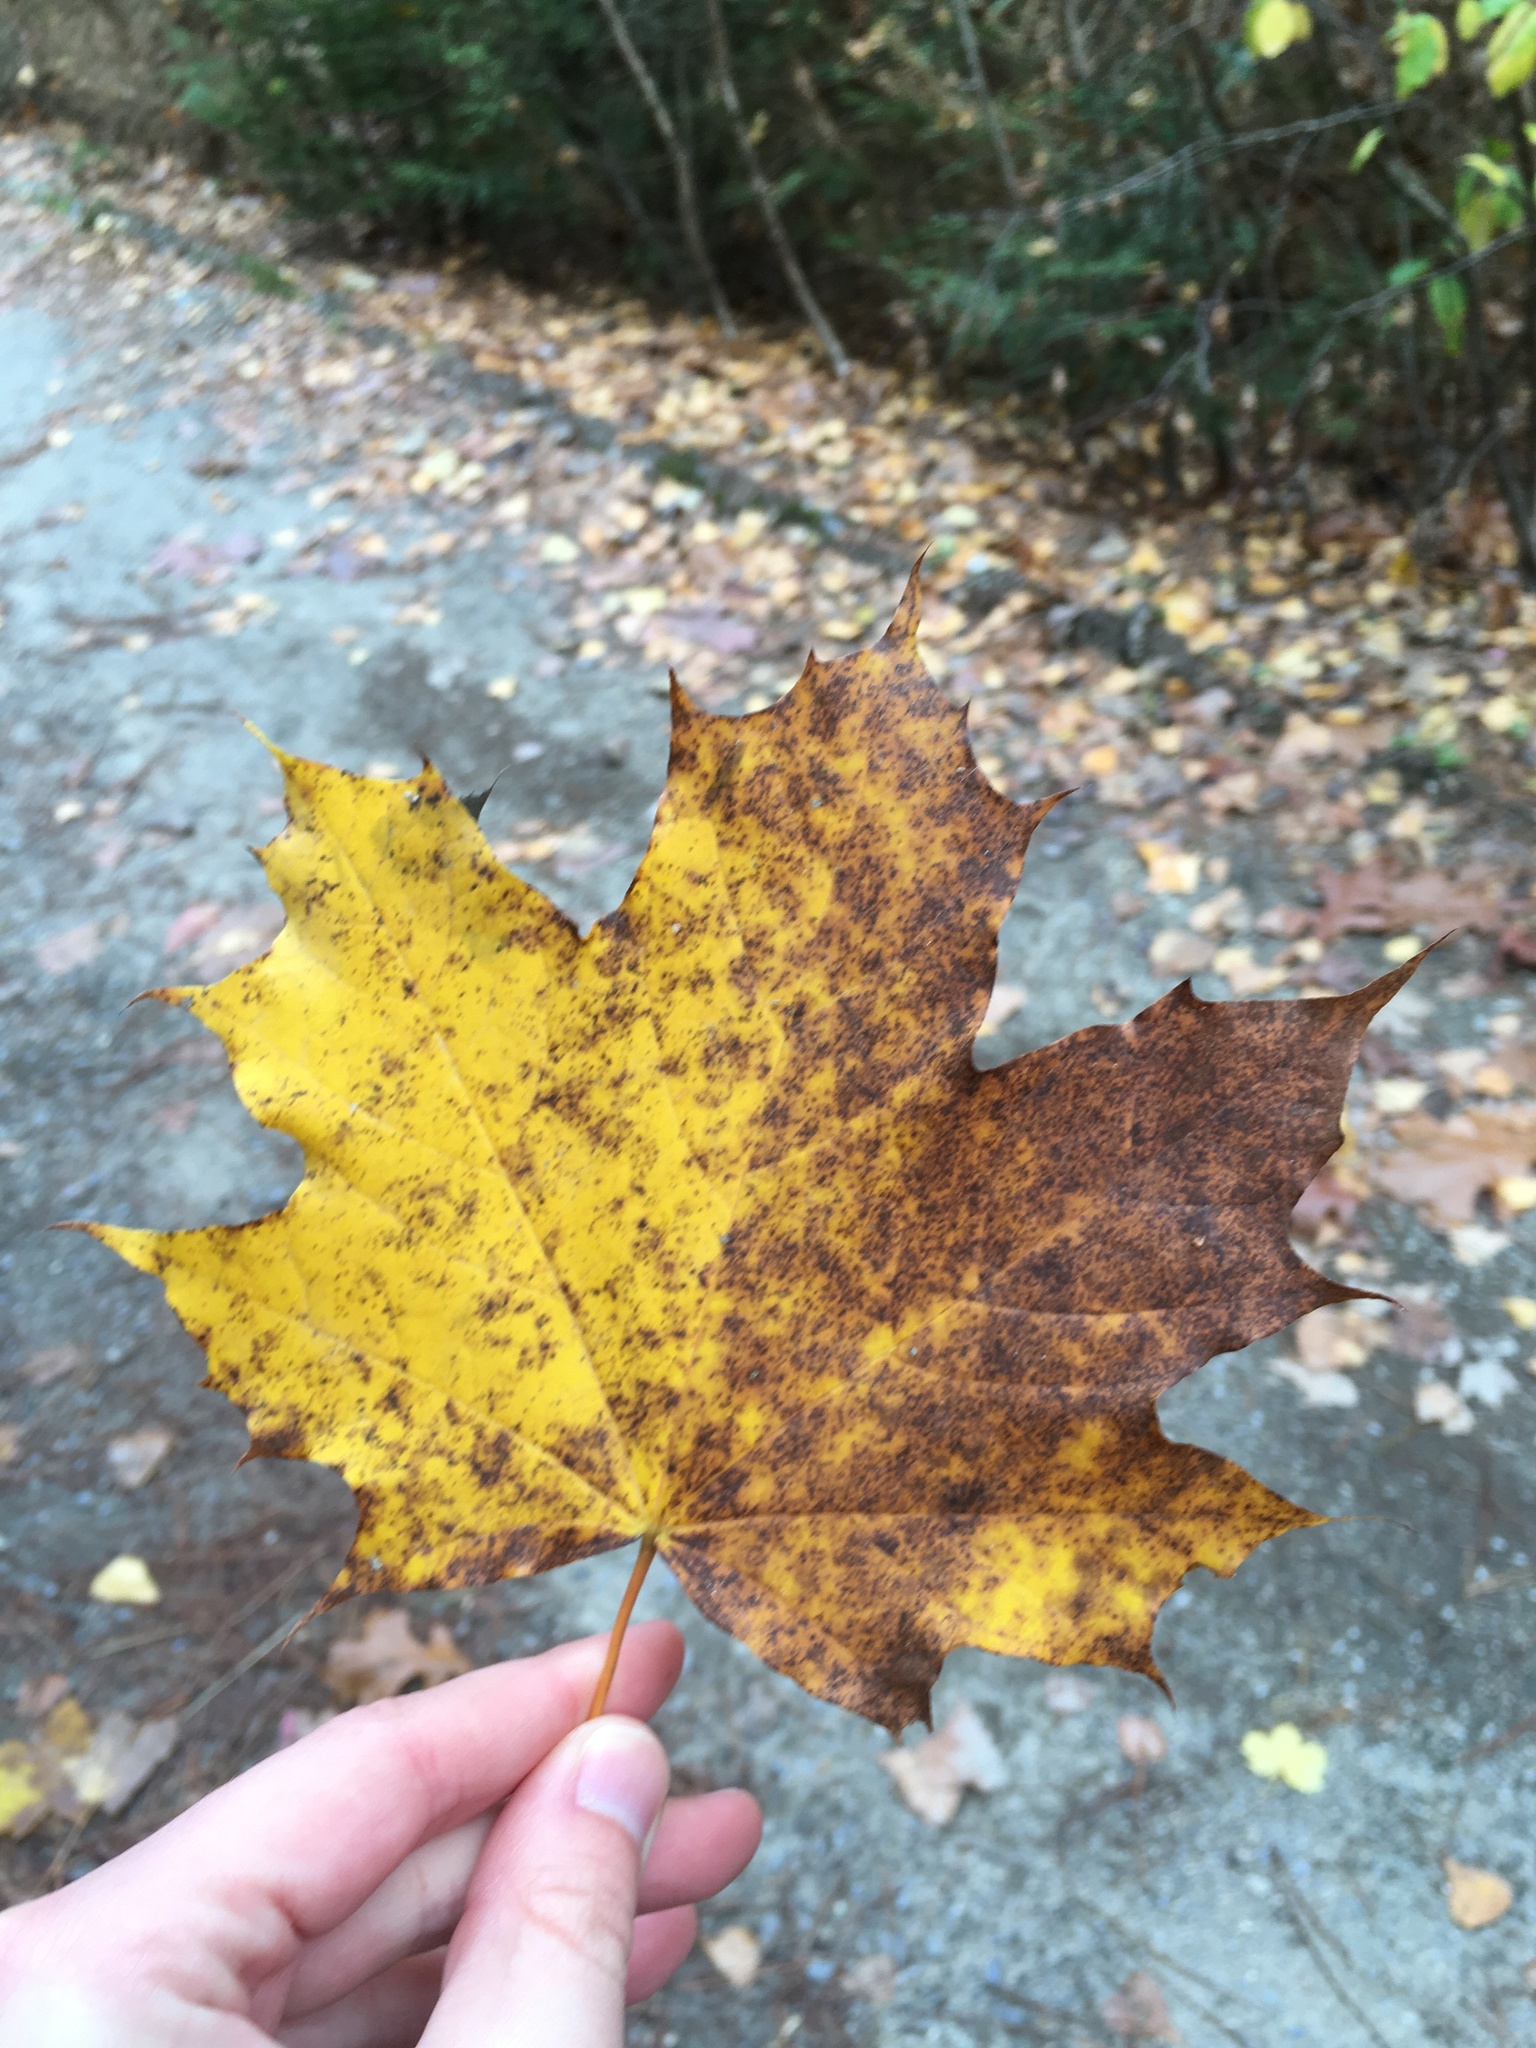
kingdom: Plantae
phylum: Tracheophyta
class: Magnoliopsida
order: Sapindales
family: Sapindaceae
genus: Acer
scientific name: Acer platanoides
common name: Norway maple
